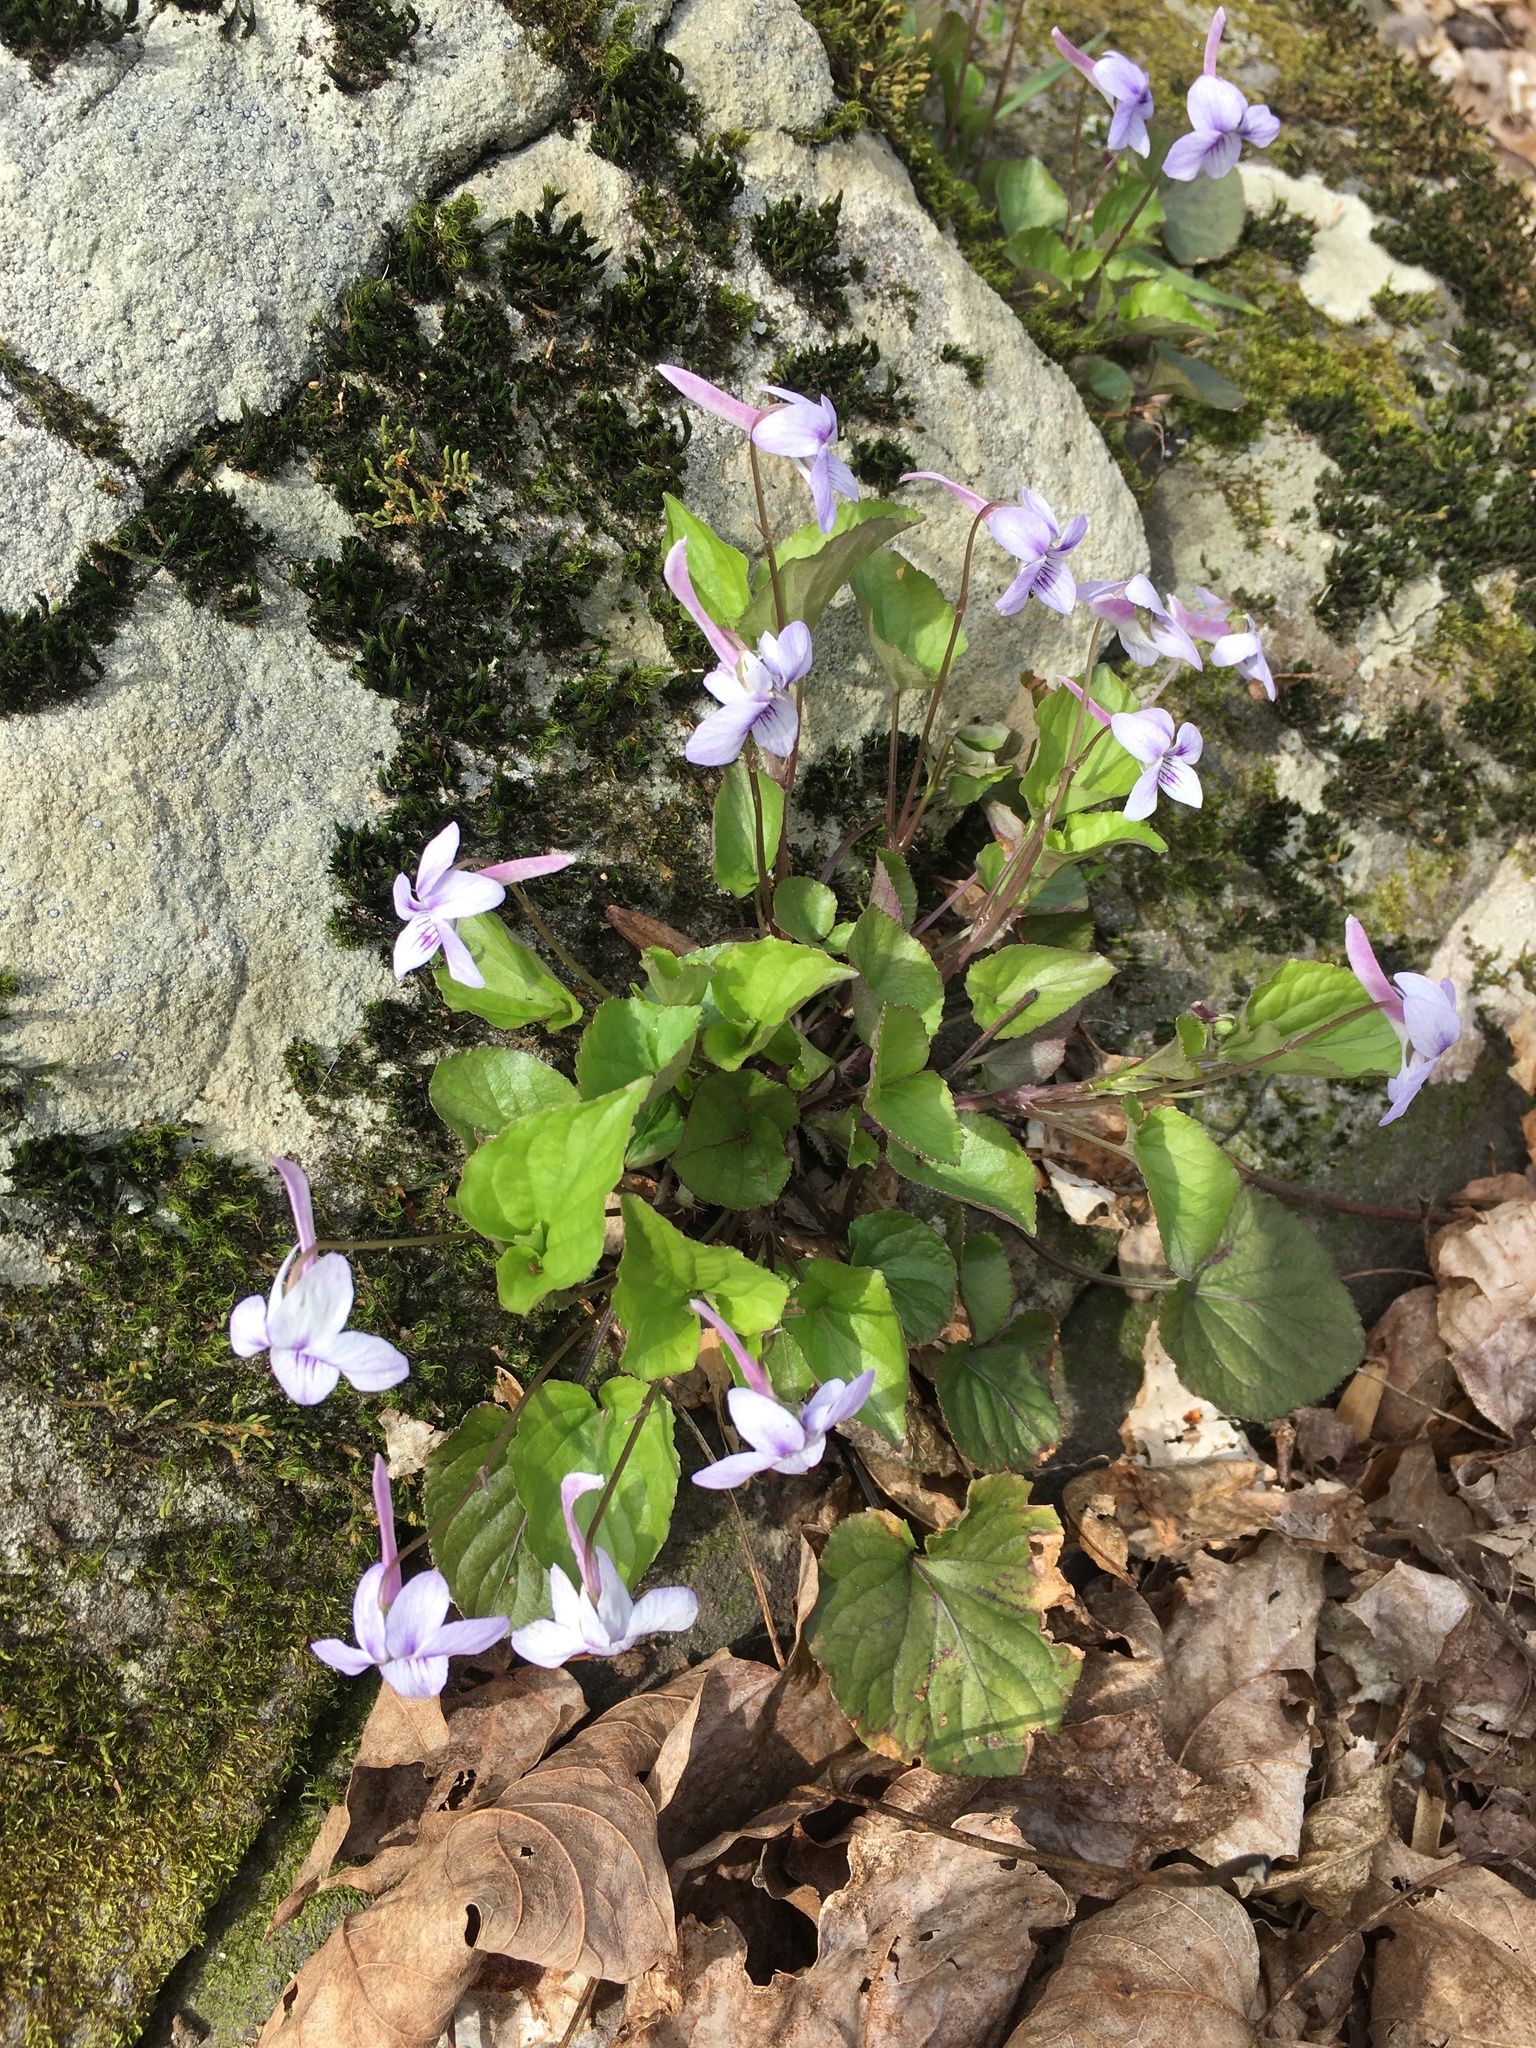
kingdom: Plantae
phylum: Tracheophyta
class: Magnoliopsida
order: Malpighiales
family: Violaceae
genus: Viola
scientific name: Viola rostrata
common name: Long-spur violet
